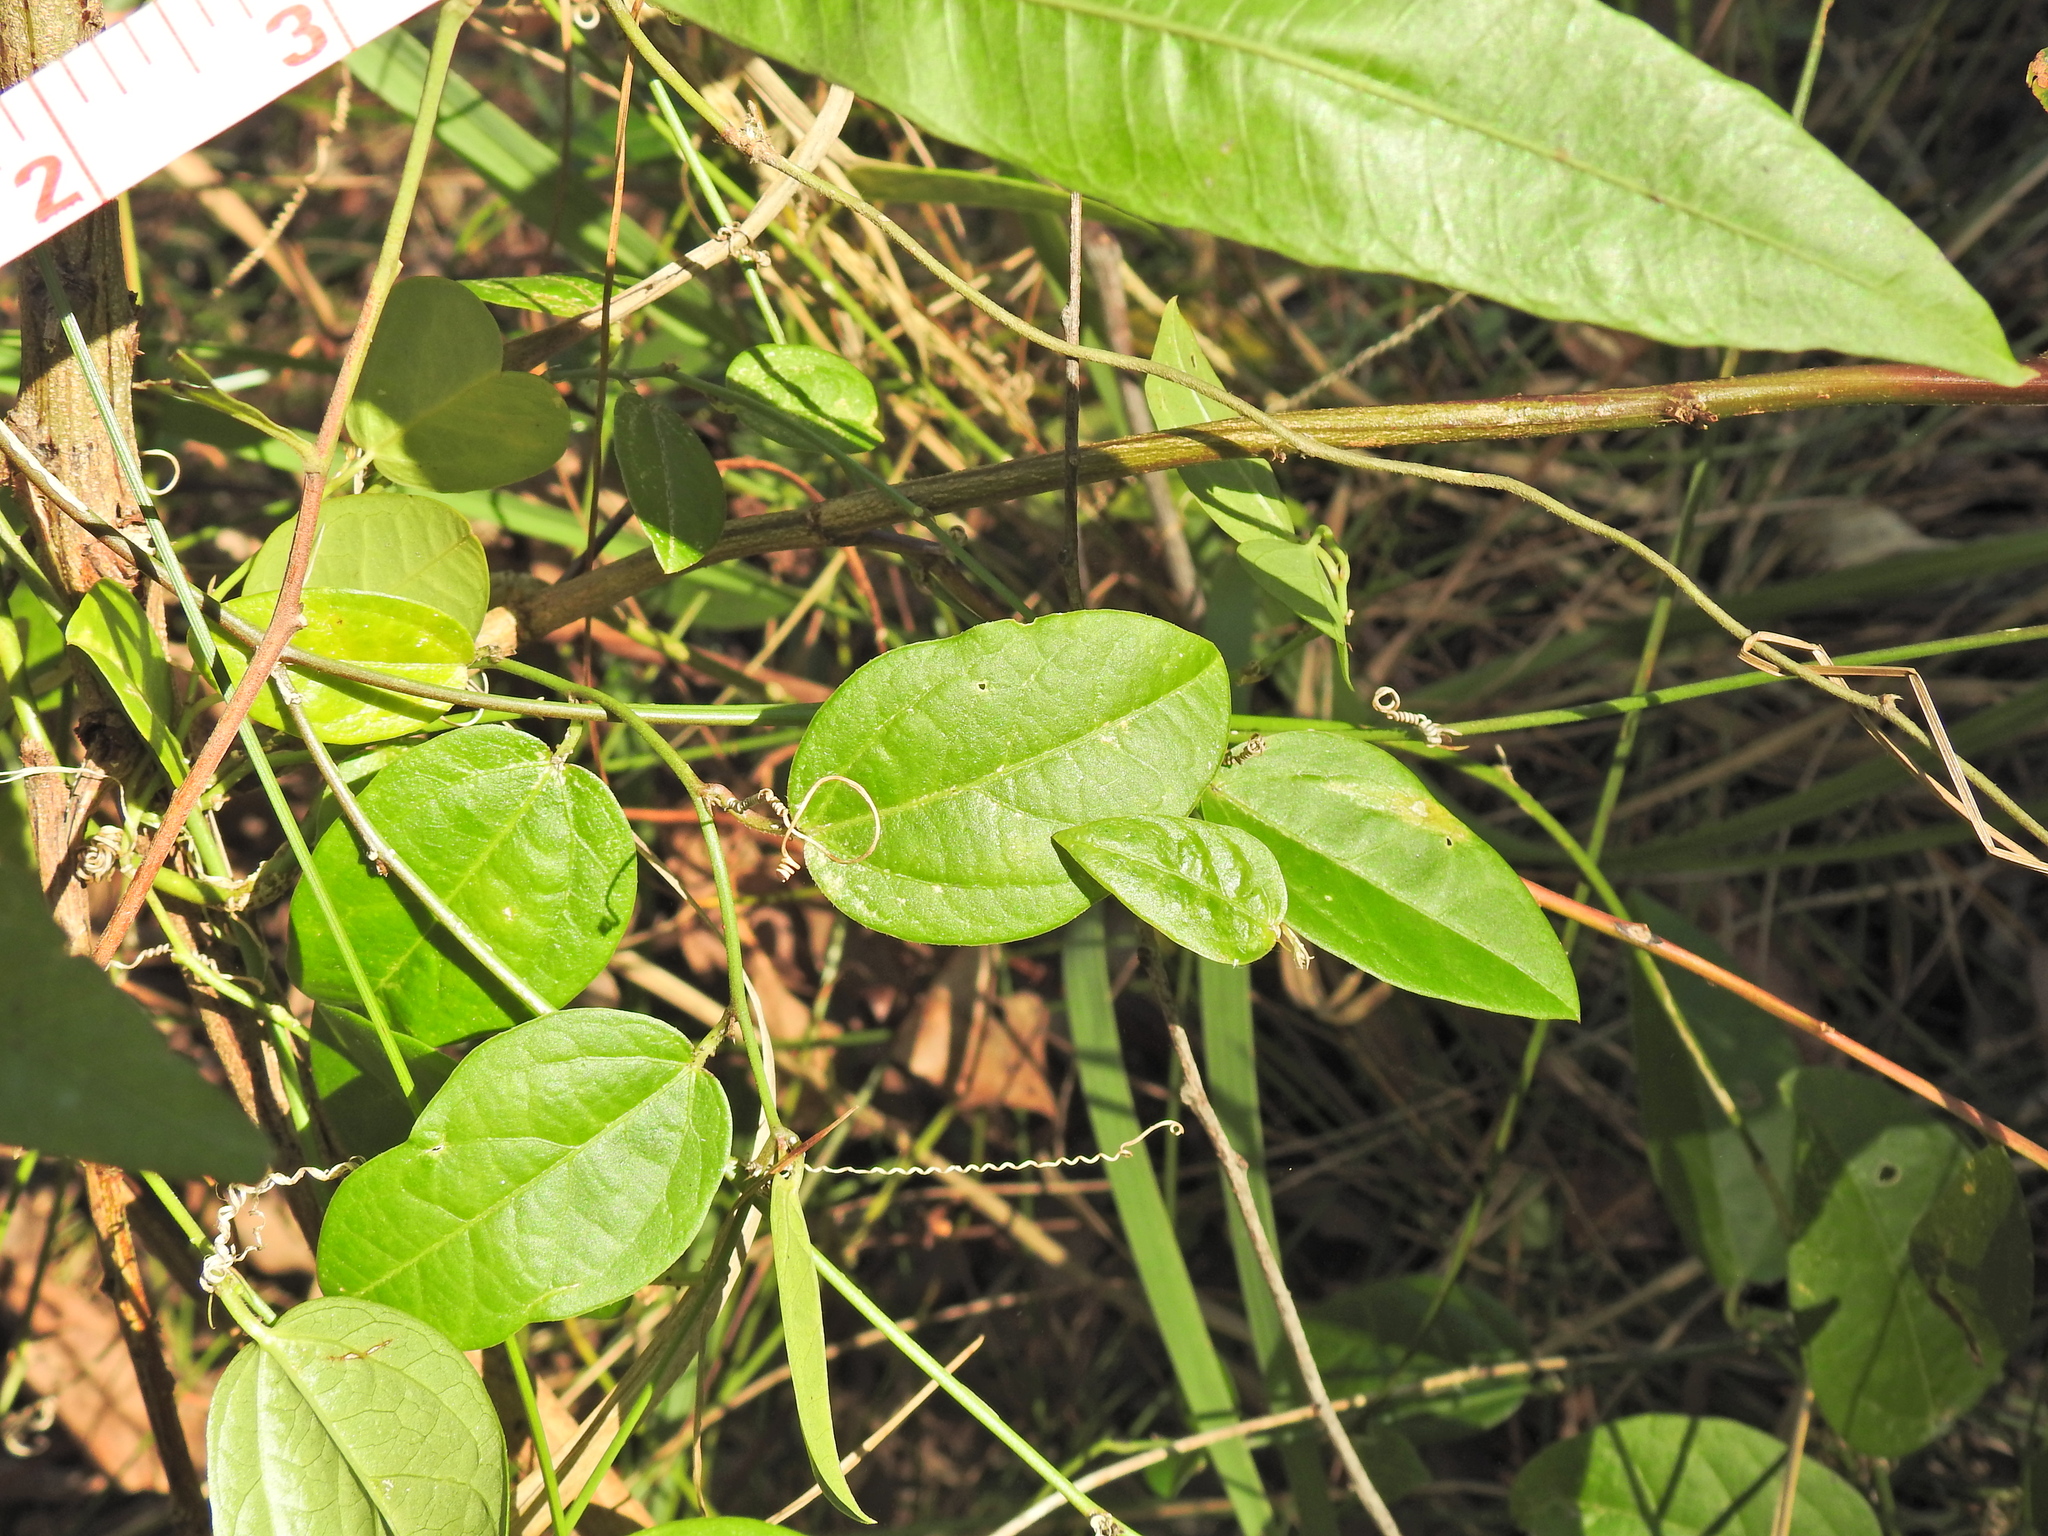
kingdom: Plantae
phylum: Tracheophyta
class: Magnoliopsida
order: Malpighiales
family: Passifloraceae
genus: Passiflora
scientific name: Passiflora pallida
